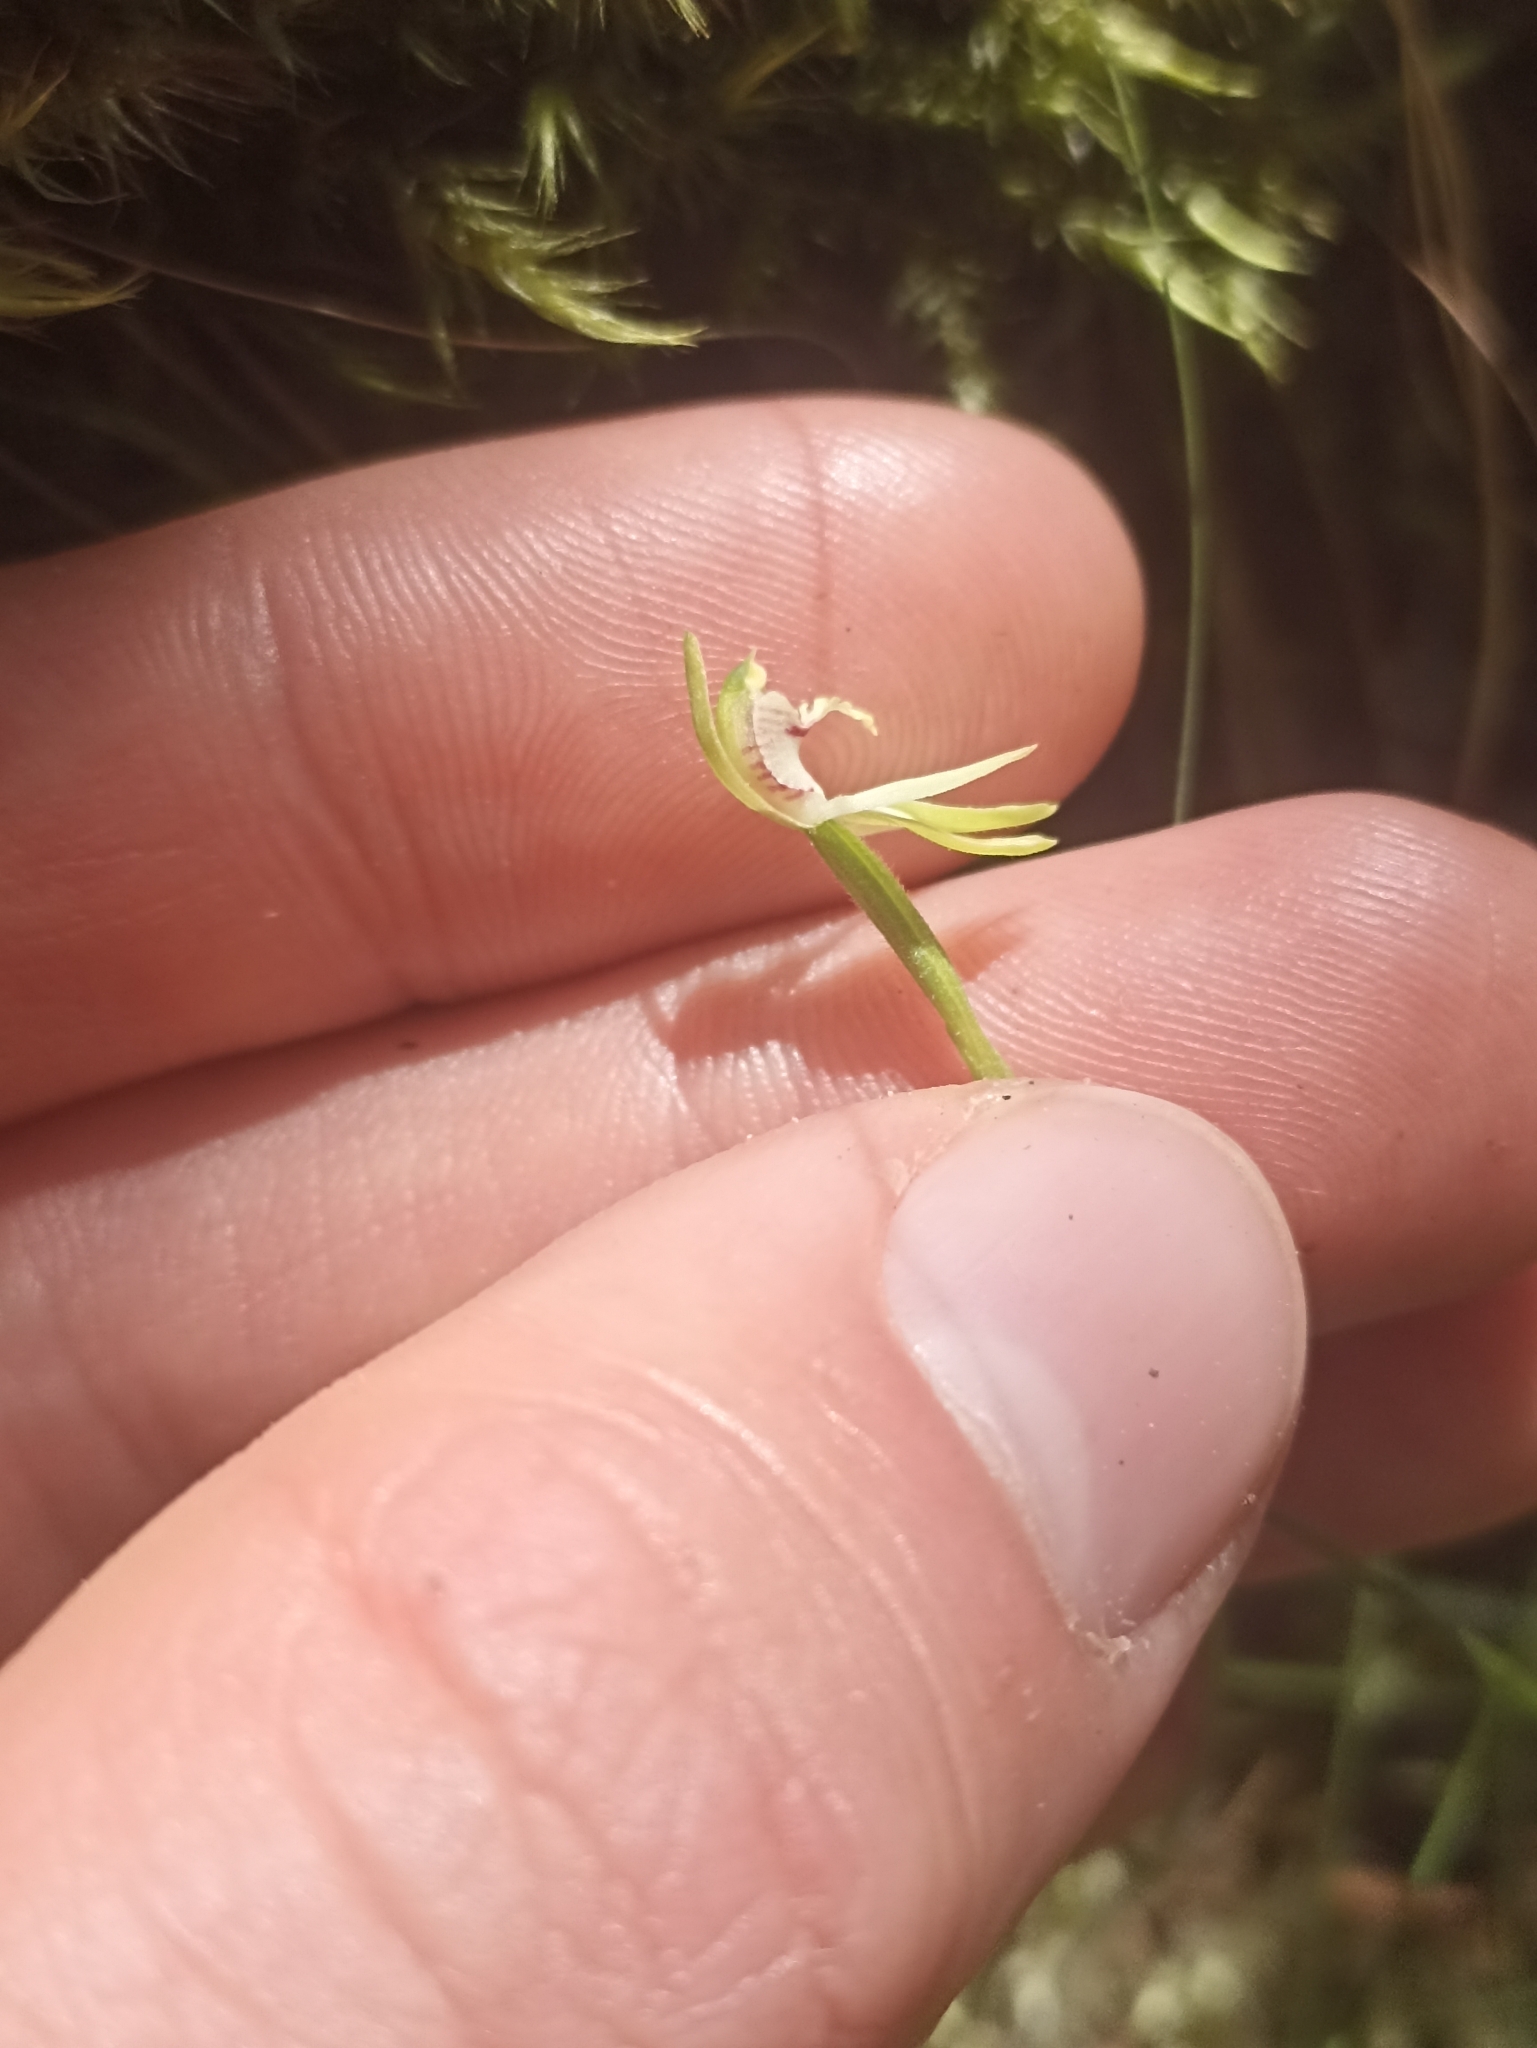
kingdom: Plantae
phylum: Tracheophyta
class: Liliopsida
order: Asparagales
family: Orchidaceae
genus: Caladenia
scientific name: Caladenia chlorostyla
